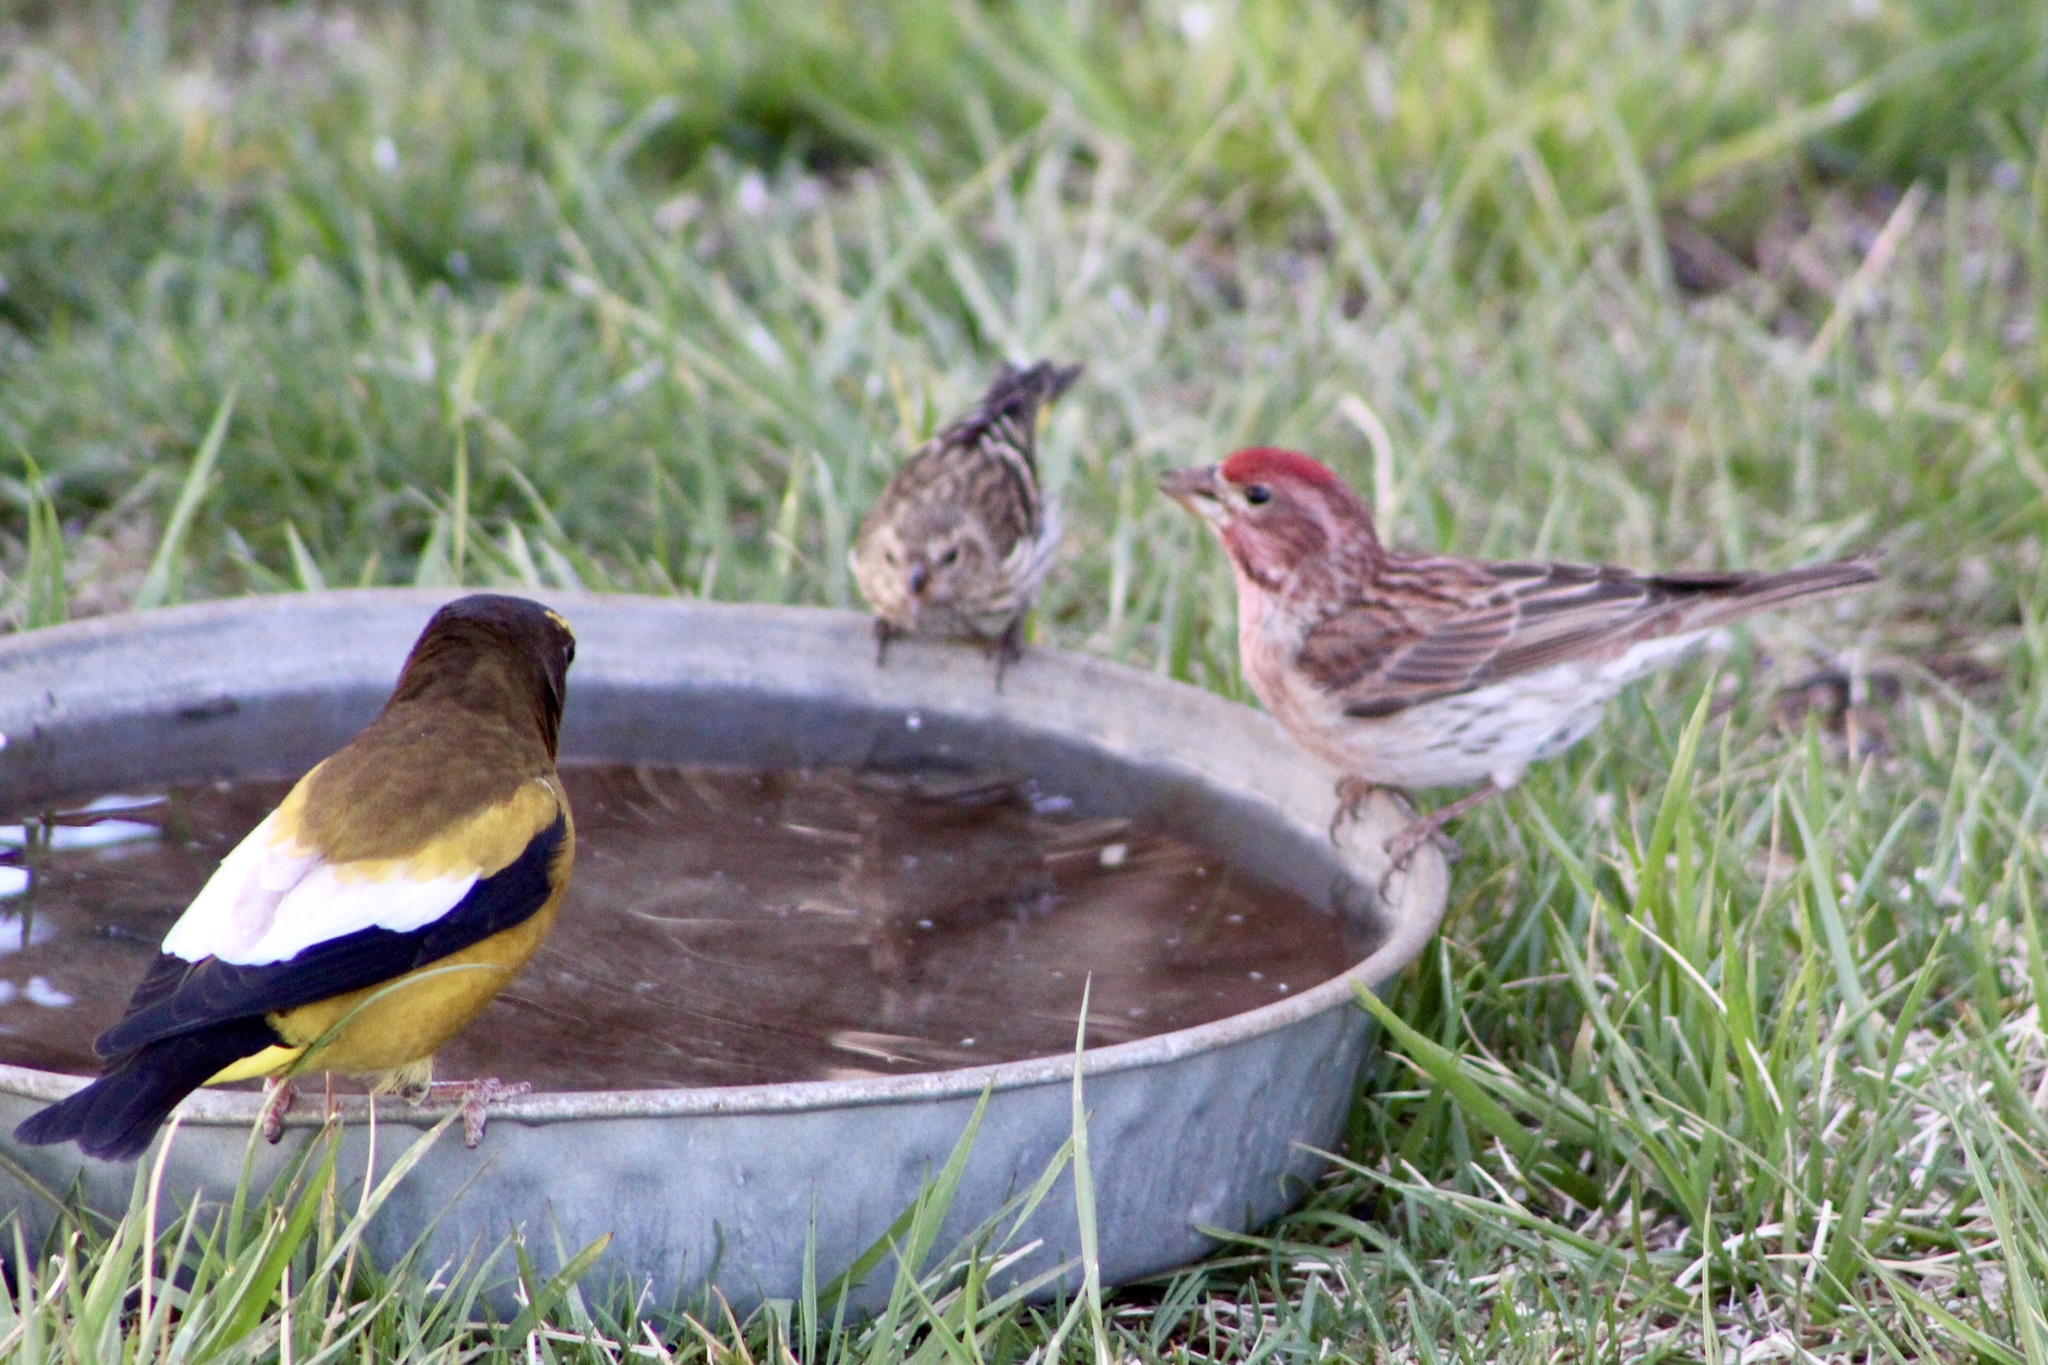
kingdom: Animalia
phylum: Chordata
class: Aves
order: Passeriformes
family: Fringillidae
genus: Spinus
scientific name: Spinus pinus
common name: Pine siskin
